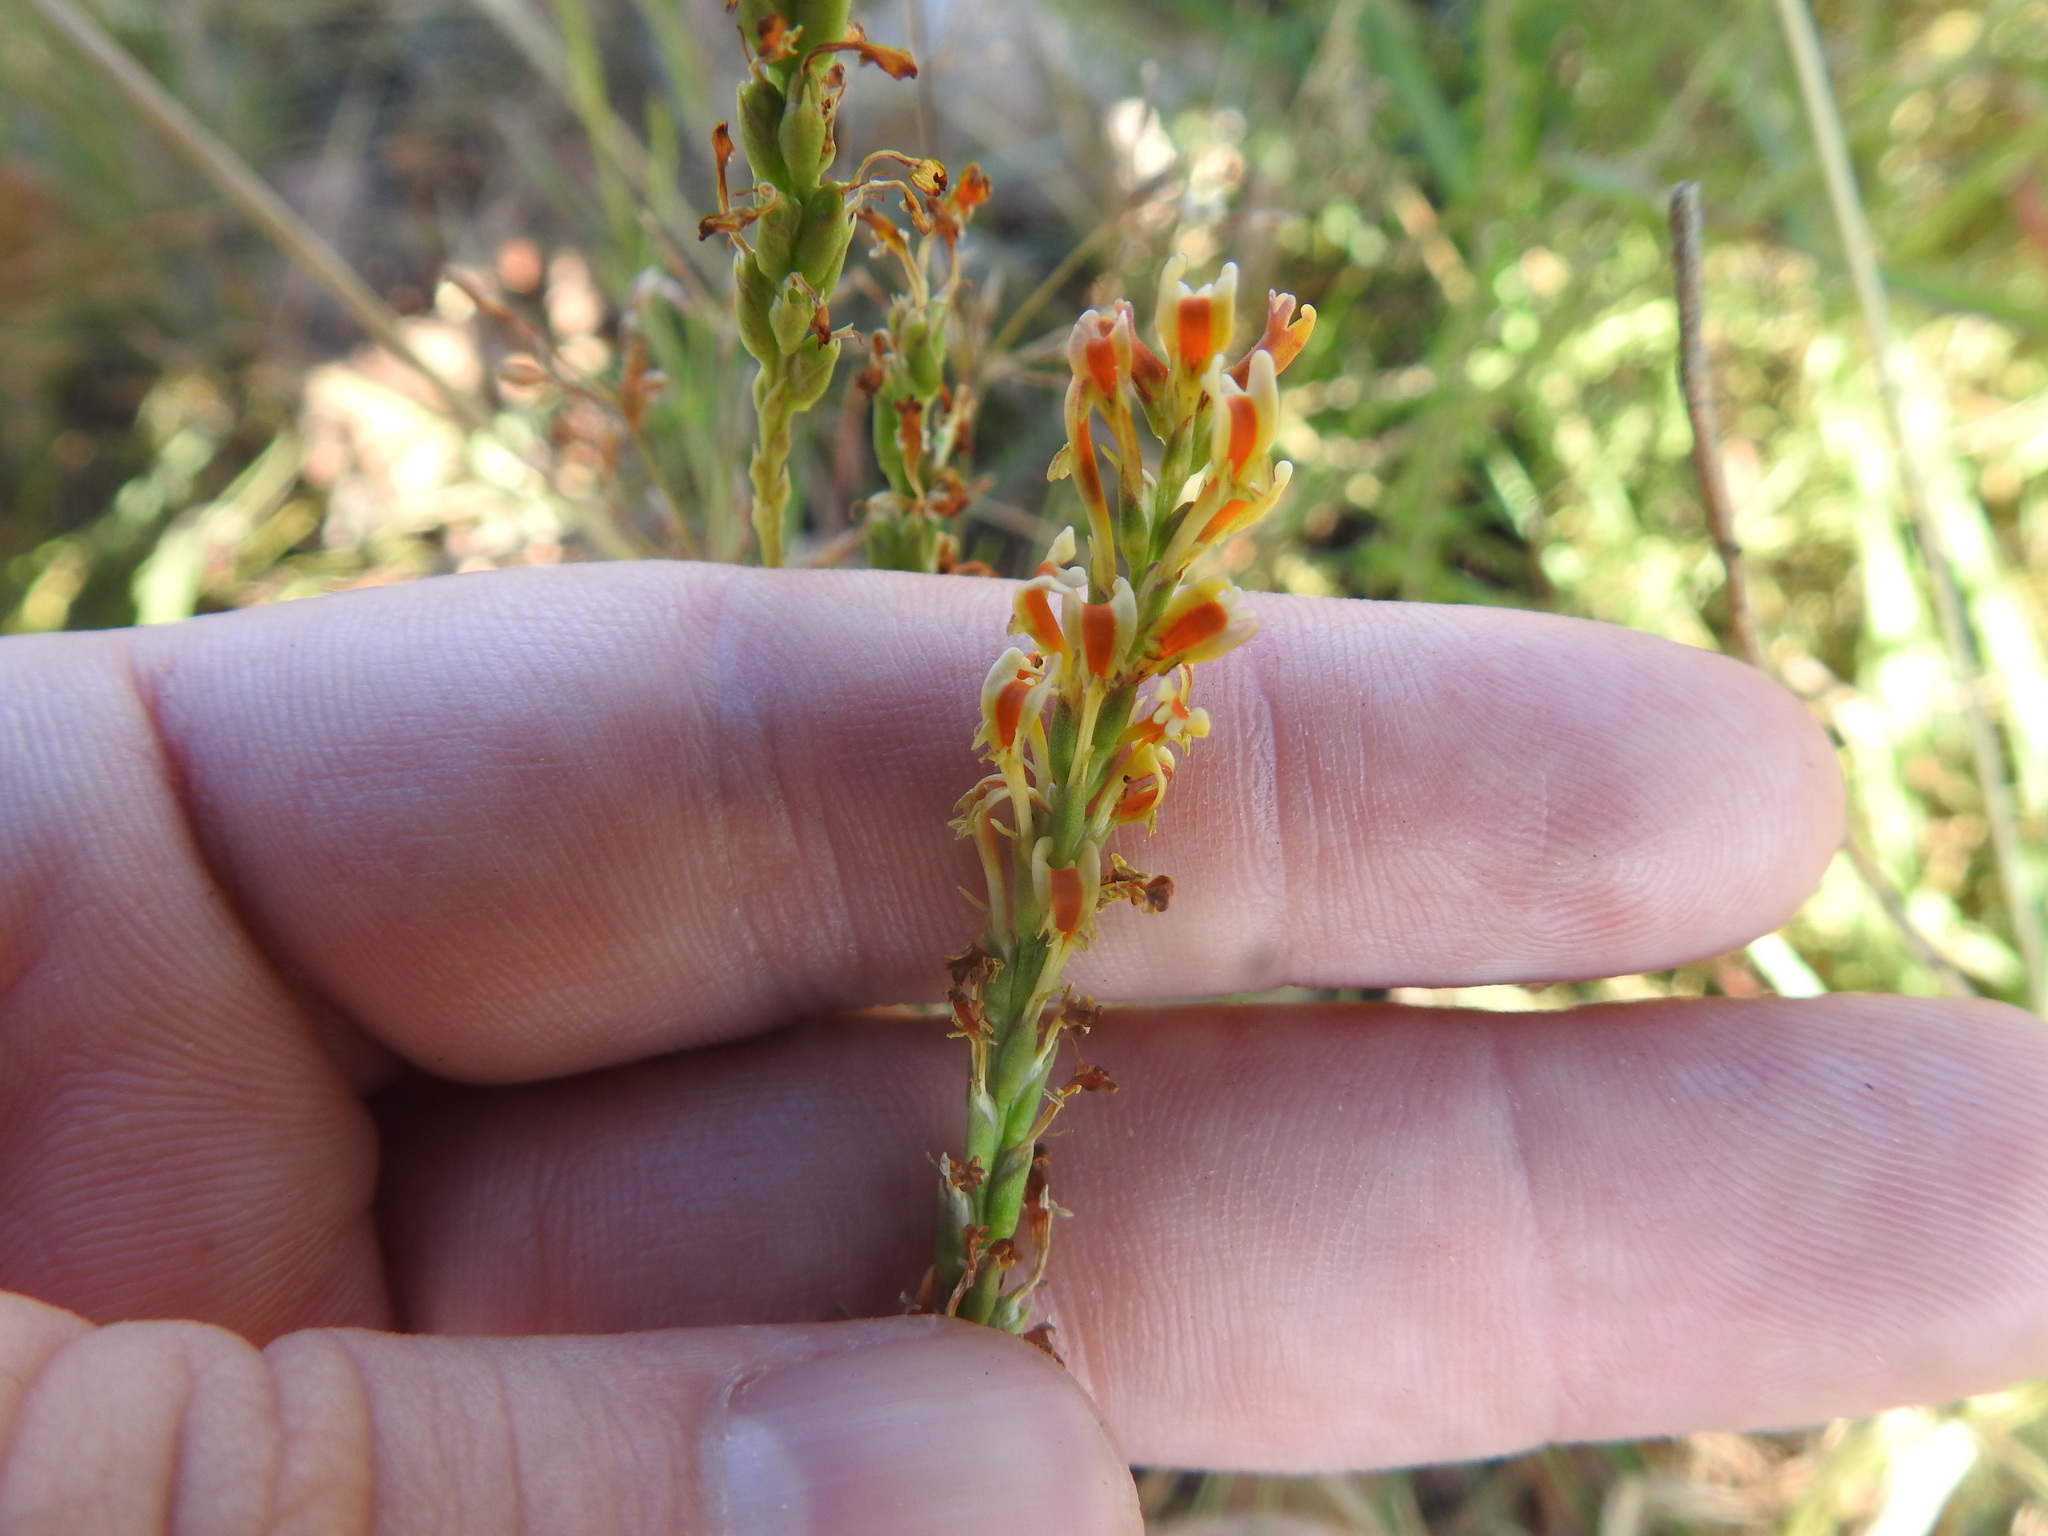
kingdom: Plantae
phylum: Tracheophyta
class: Magnoliopsida
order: Lamiales
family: Scrophulariaceae
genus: Hebenstretia
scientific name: Hebenstretia comosa
